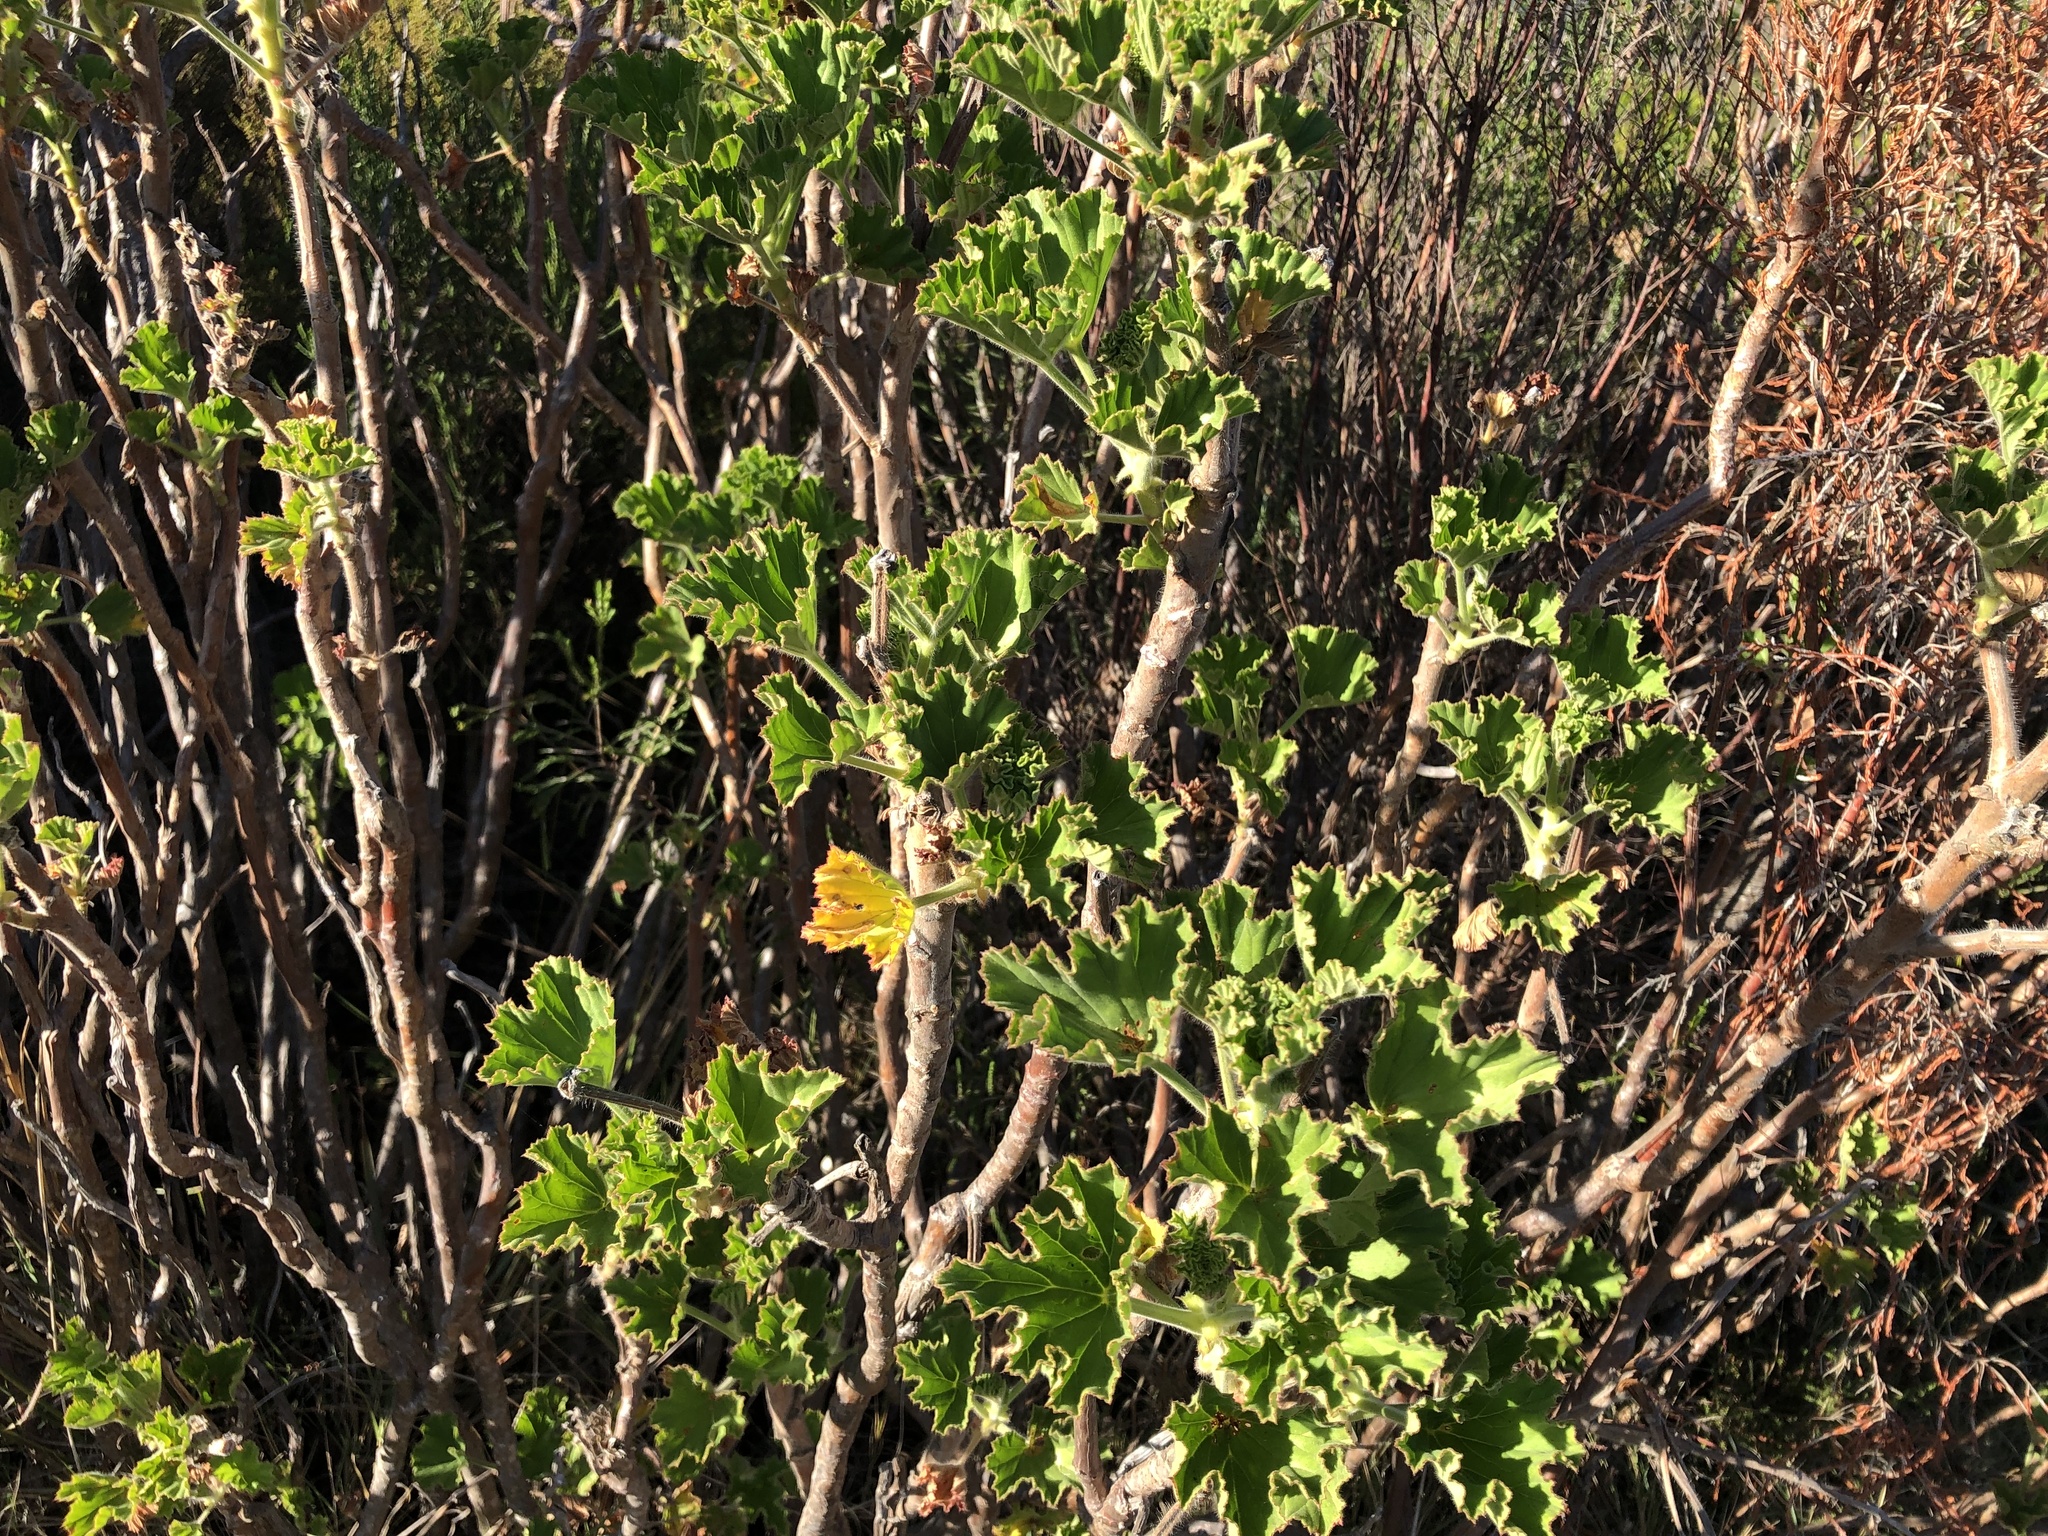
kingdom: Plantae
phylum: Tracheophyta
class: Magnoliopsida
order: Geraniales
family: Geraniaceae
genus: Pelargonium
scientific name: Pelargonium cucullatum
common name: Tree pelargonium
